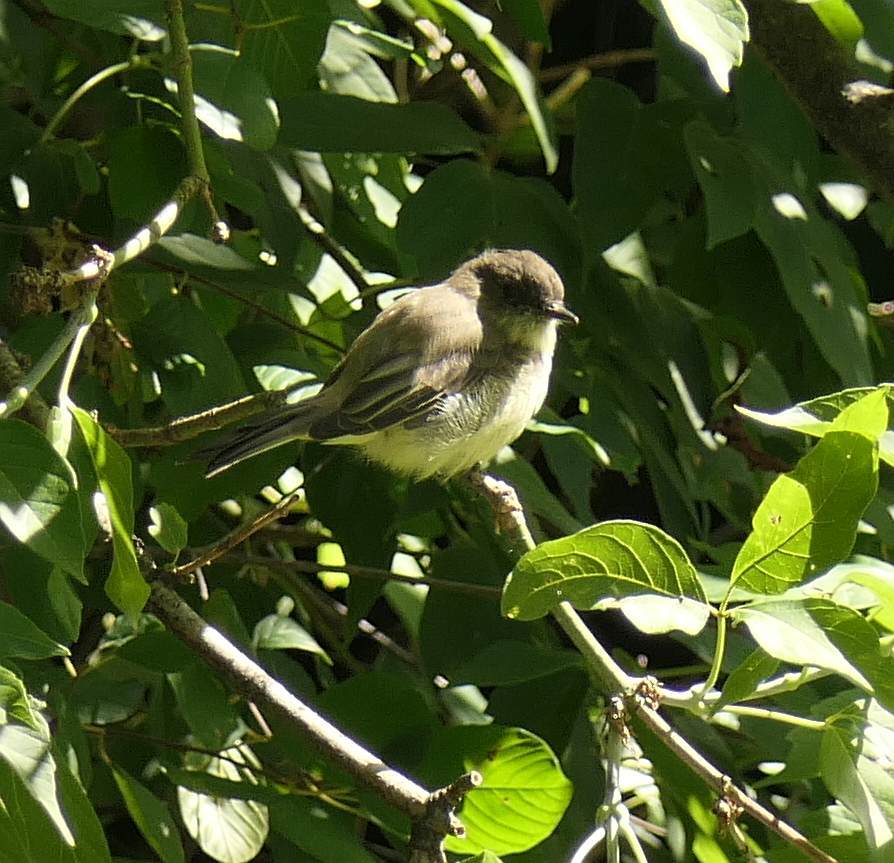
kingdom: Animalia
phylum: Chordata
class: Aves
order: Passeriformes
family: Tyrannidae
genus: Sayornis
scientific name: Sayornis phoebe
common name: Eastern phoebe
